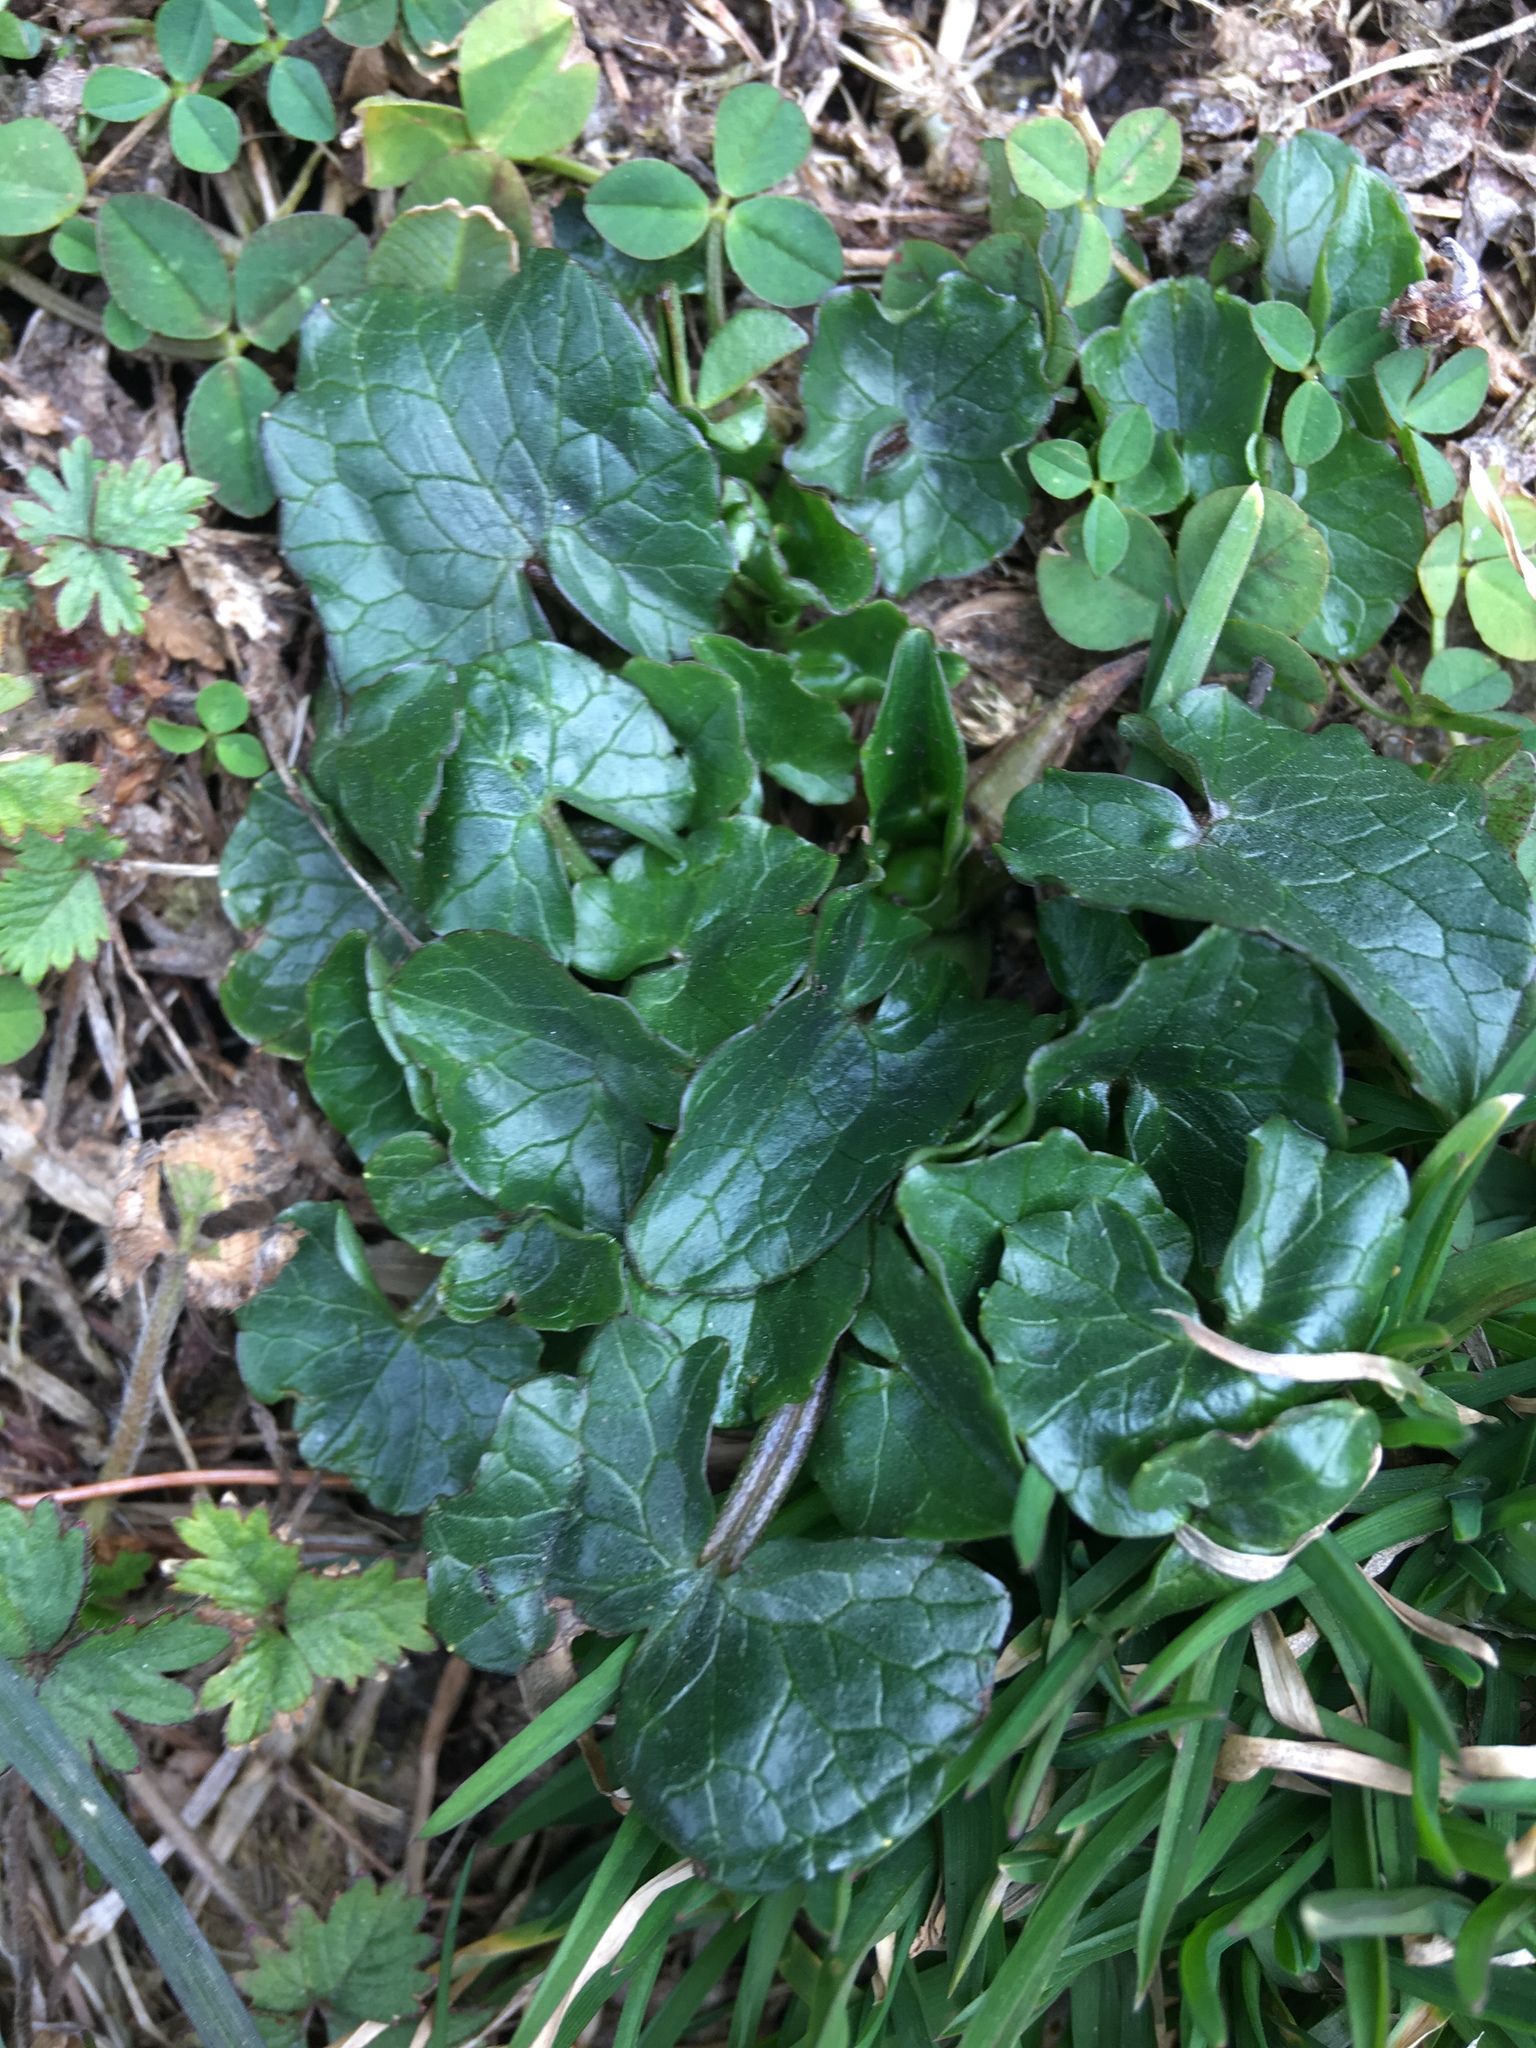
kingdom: Plantae
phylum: Tracheophyta
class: Magnoliopsida
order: Ranunculales
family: Ranunculaceae
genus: Ficaria
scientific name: Ficaria verna
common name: Lesser celandine
